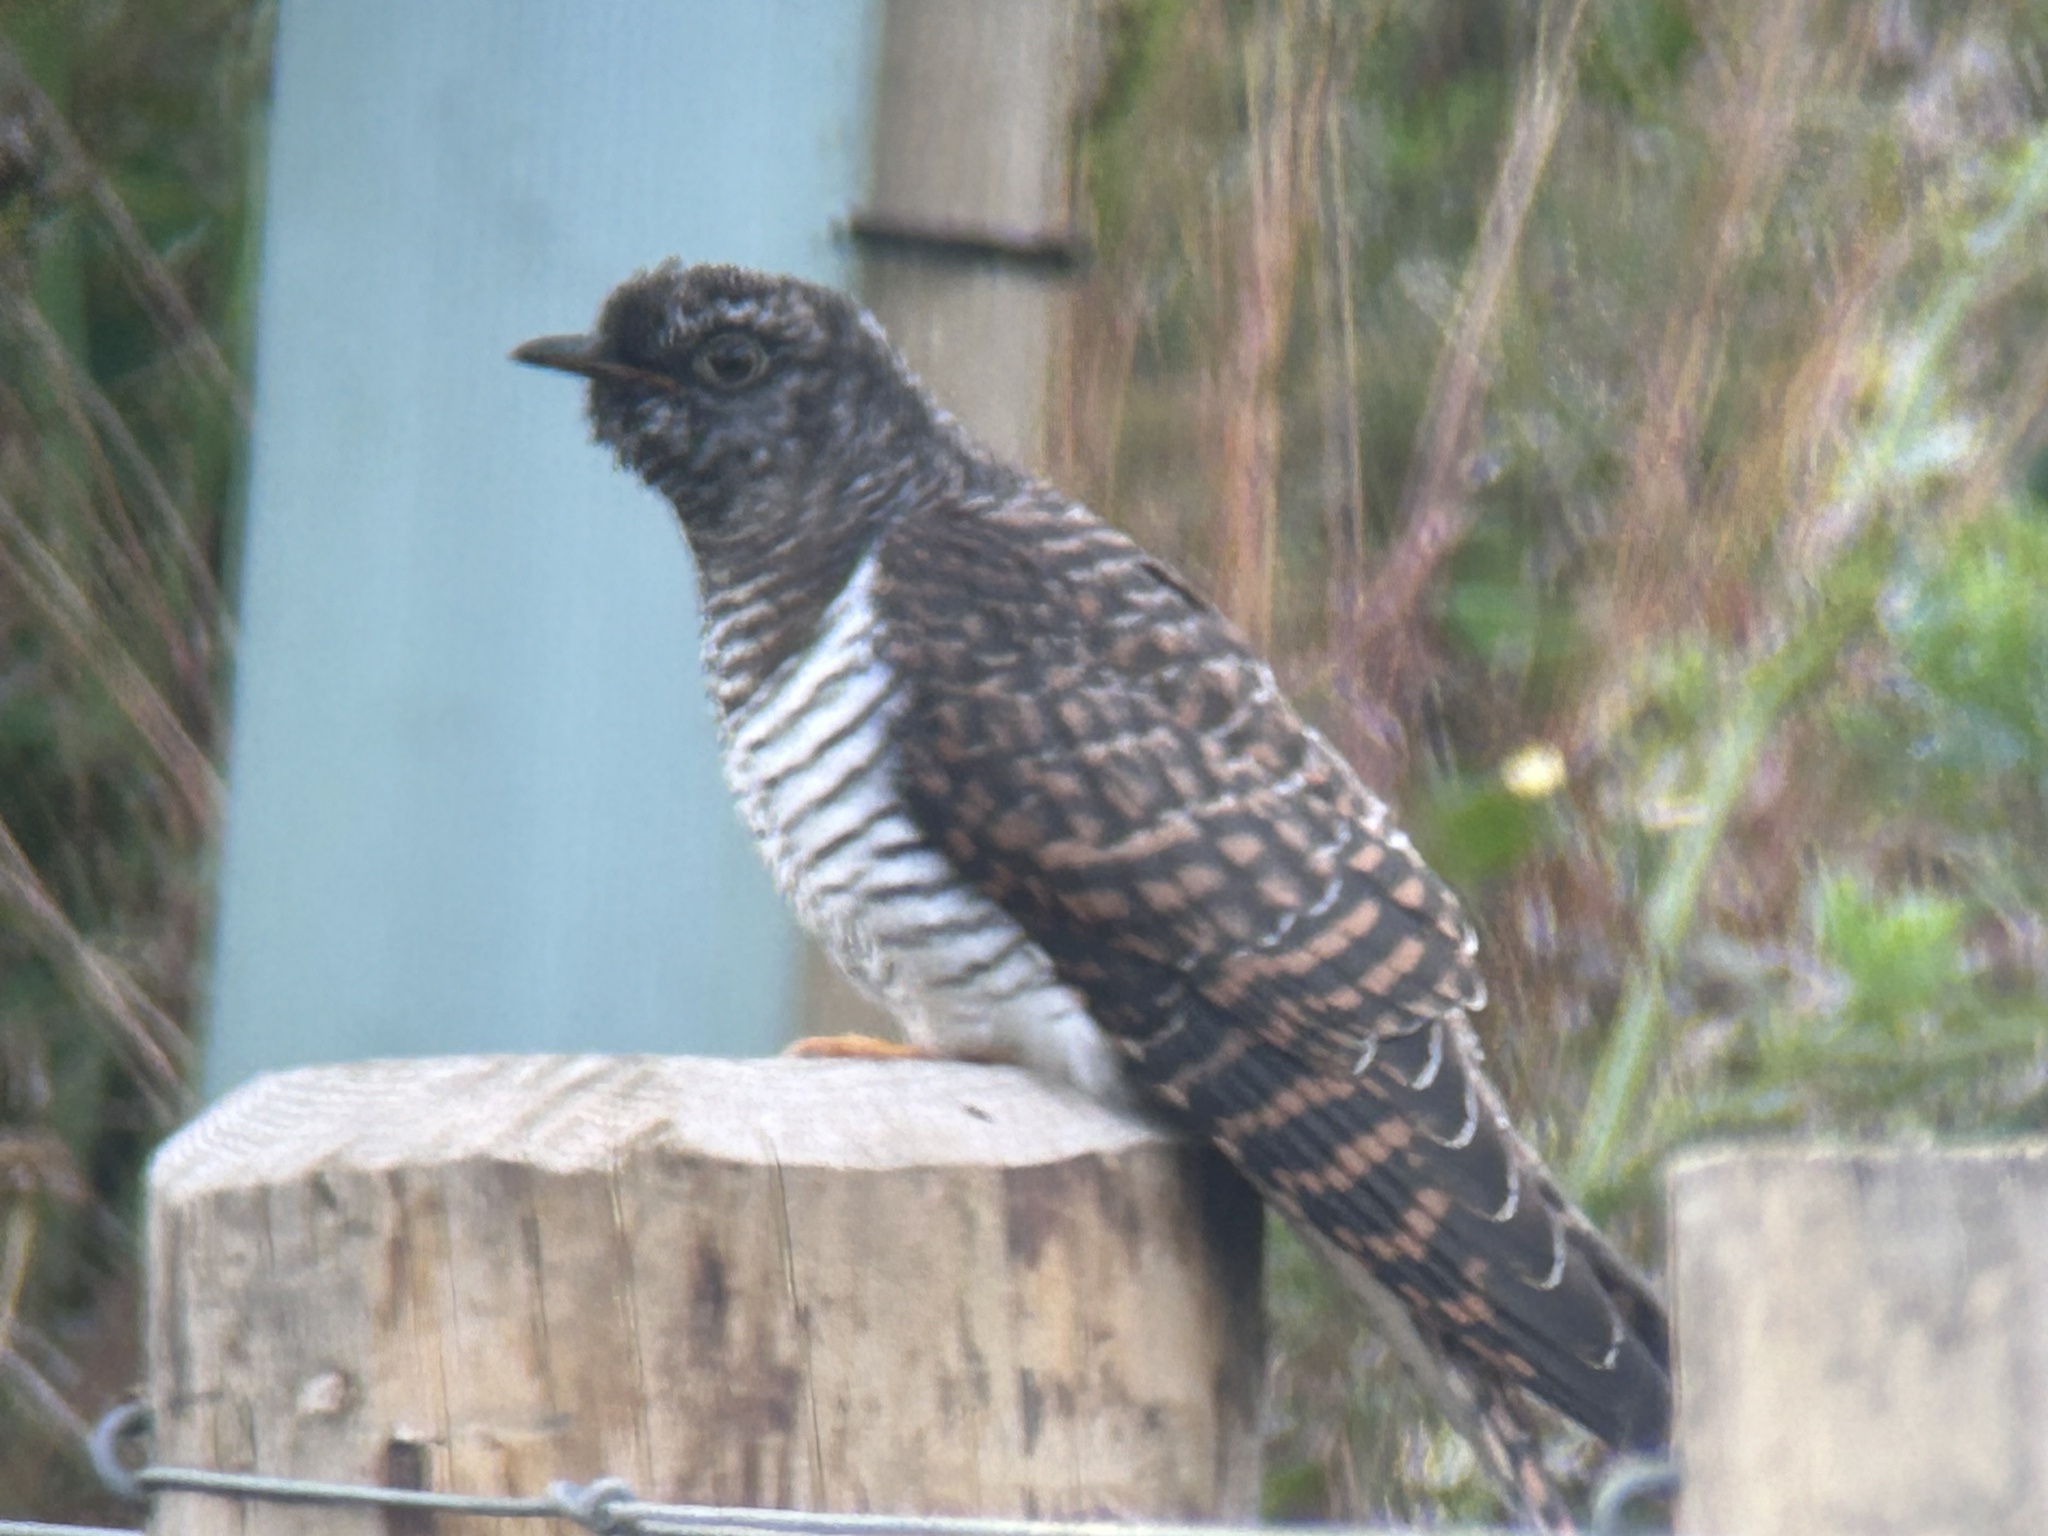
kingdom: Animalia
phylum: Chordata
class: Aves
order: Cuculiformes
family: Cuculidae
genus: Cuculus
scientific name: Cuculus canorus
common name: Common cuckoo
